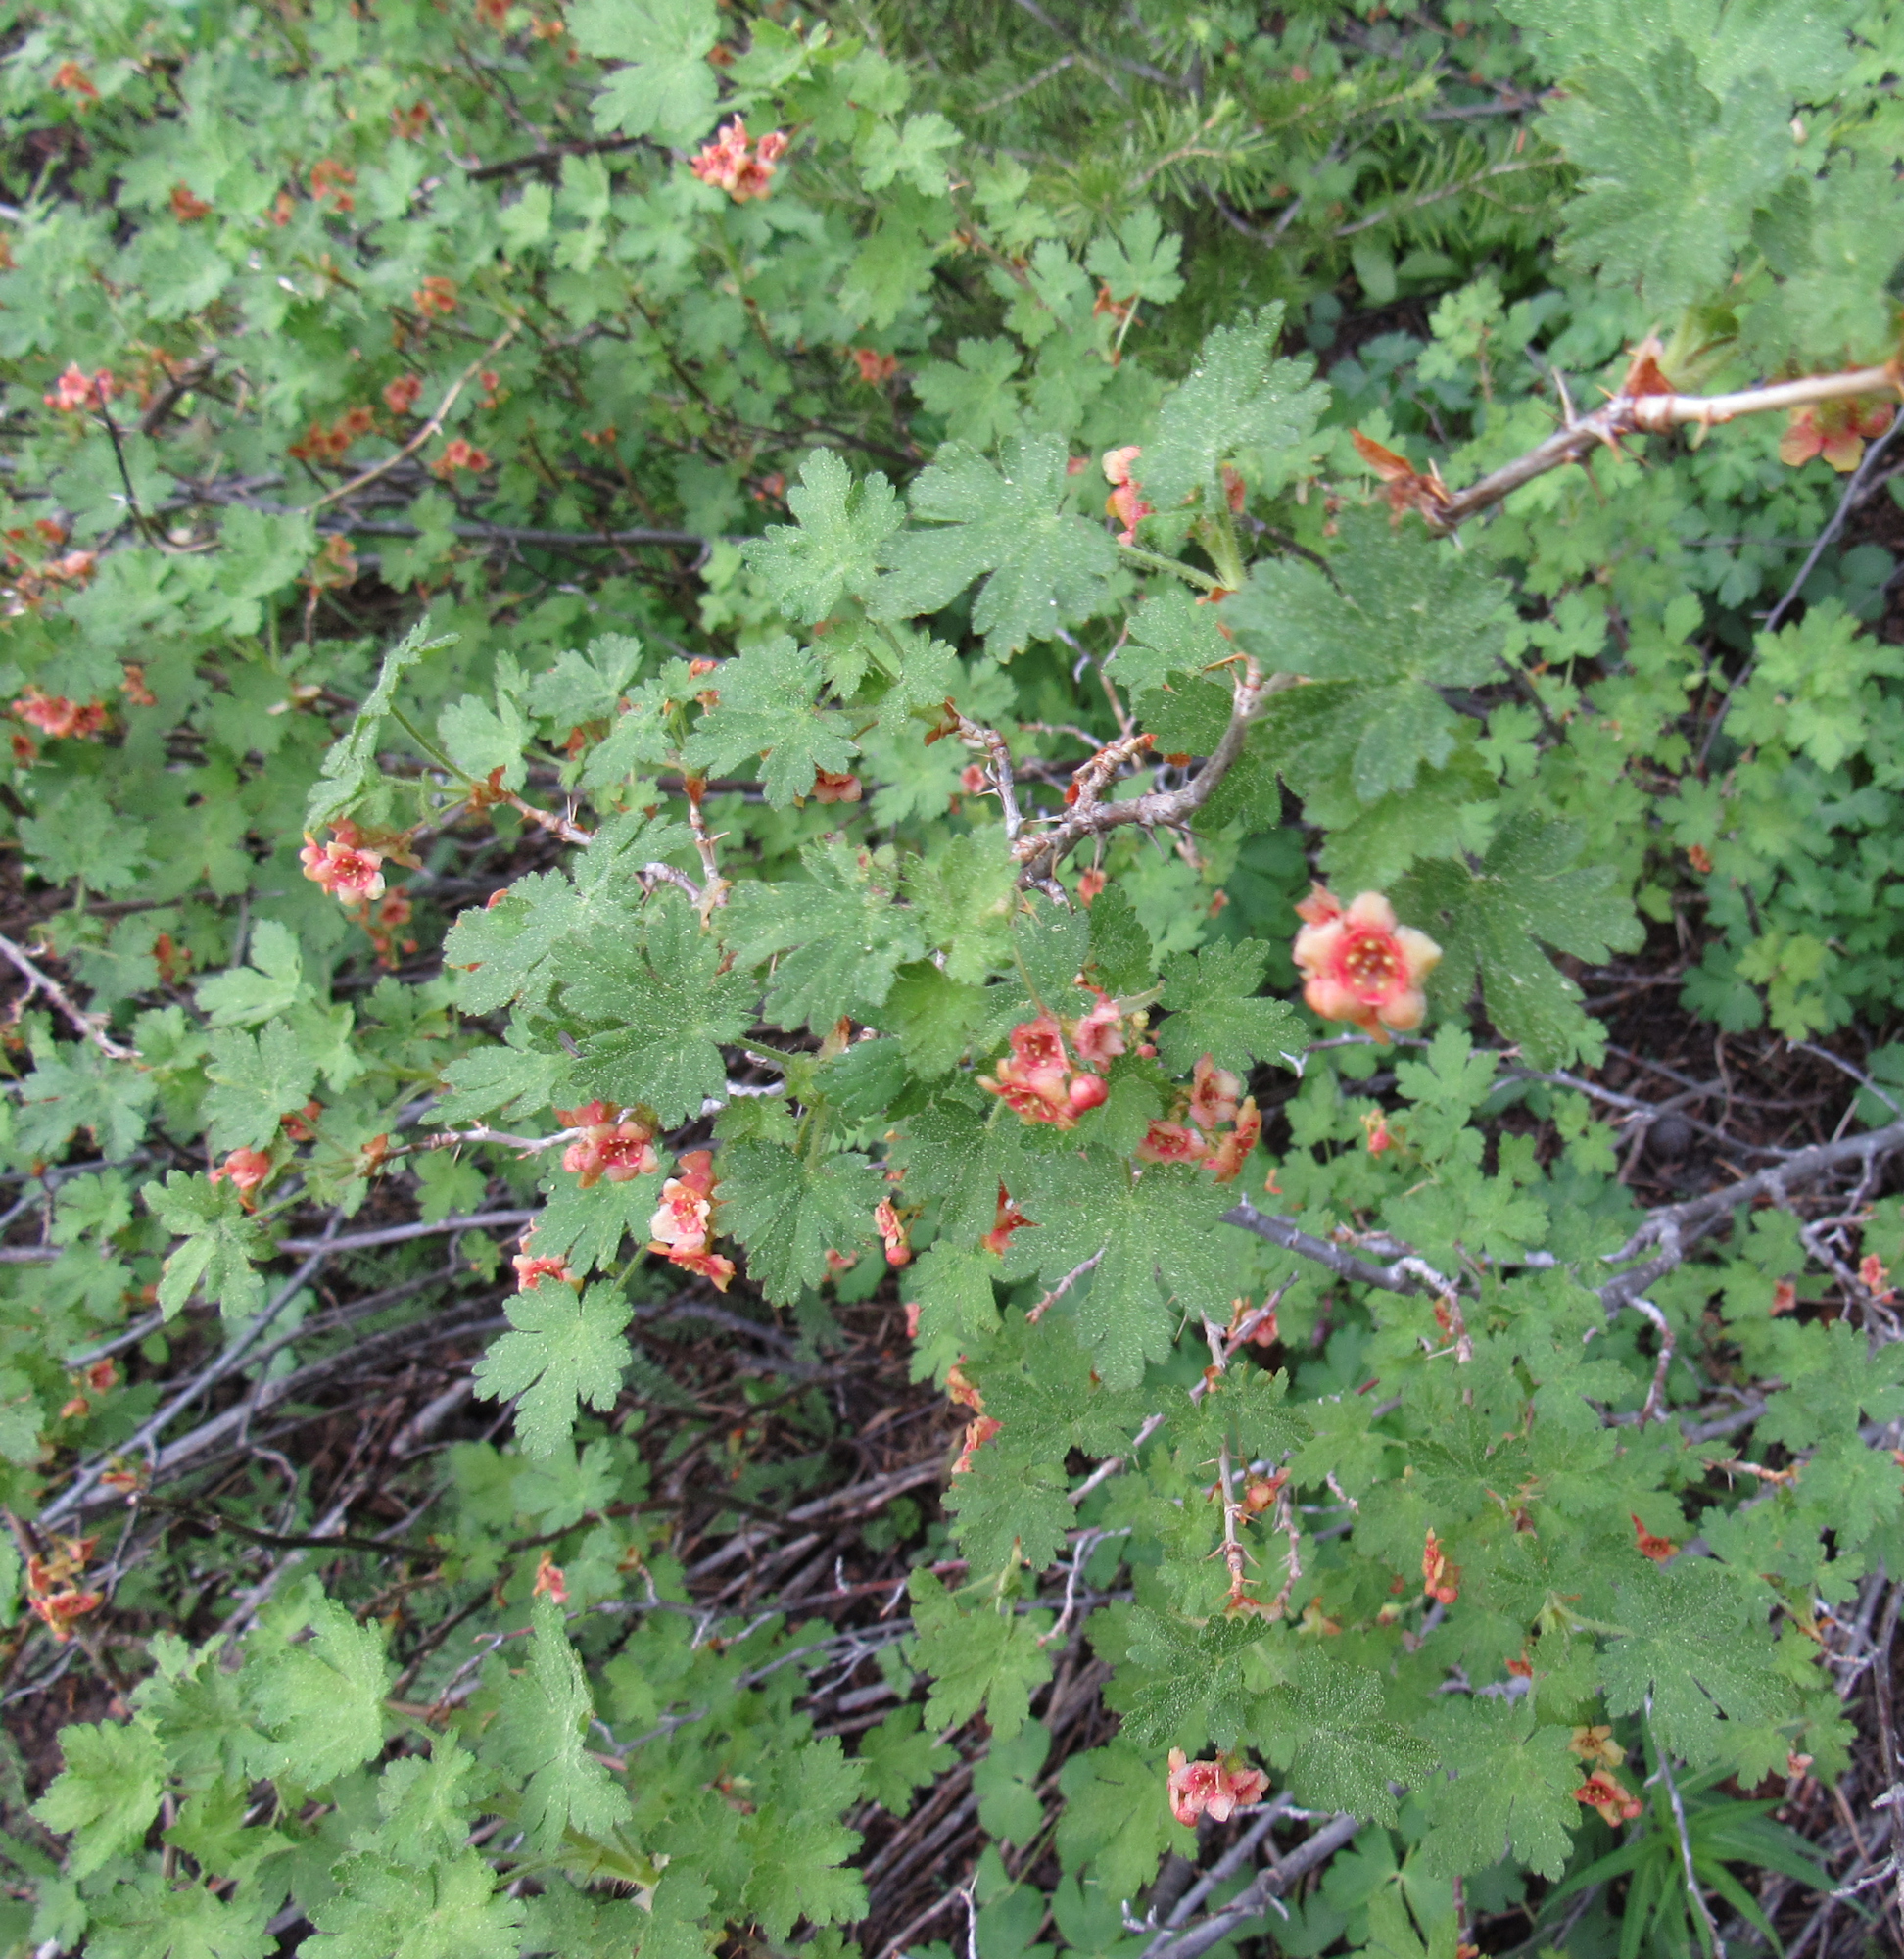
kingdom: Plantae
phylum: Tracheophyta
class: Magnoliopsida
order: Saxifragales
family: Grossulariaceae
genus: Ribes
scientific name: Ribes montigenum
